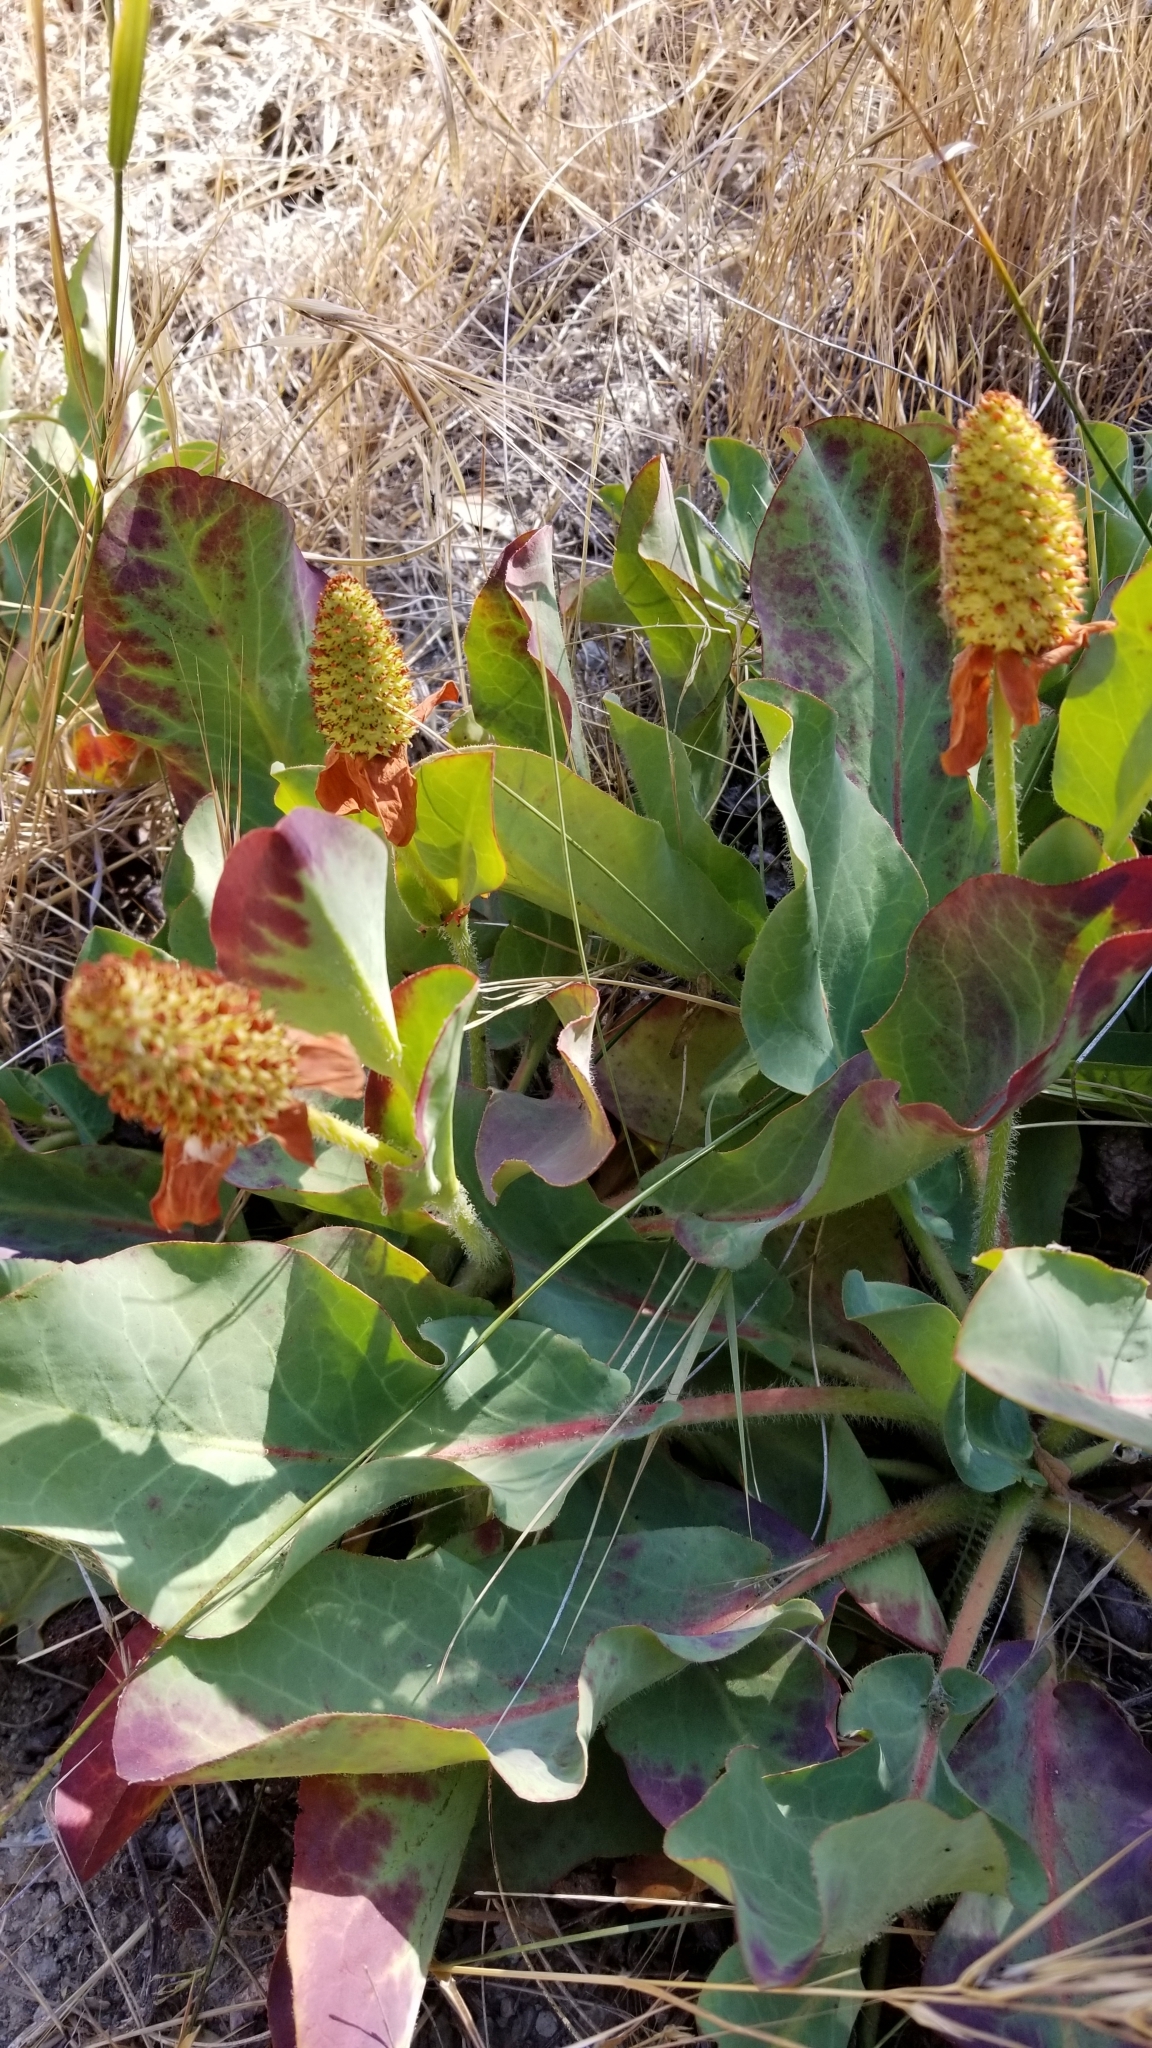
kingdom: Plantae
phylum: Tracheophyta
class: Magnoliopsida
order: Piperales
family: Saururaceae
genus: Anemopsis
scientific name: Anemopsis californica
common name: Apache-beads
